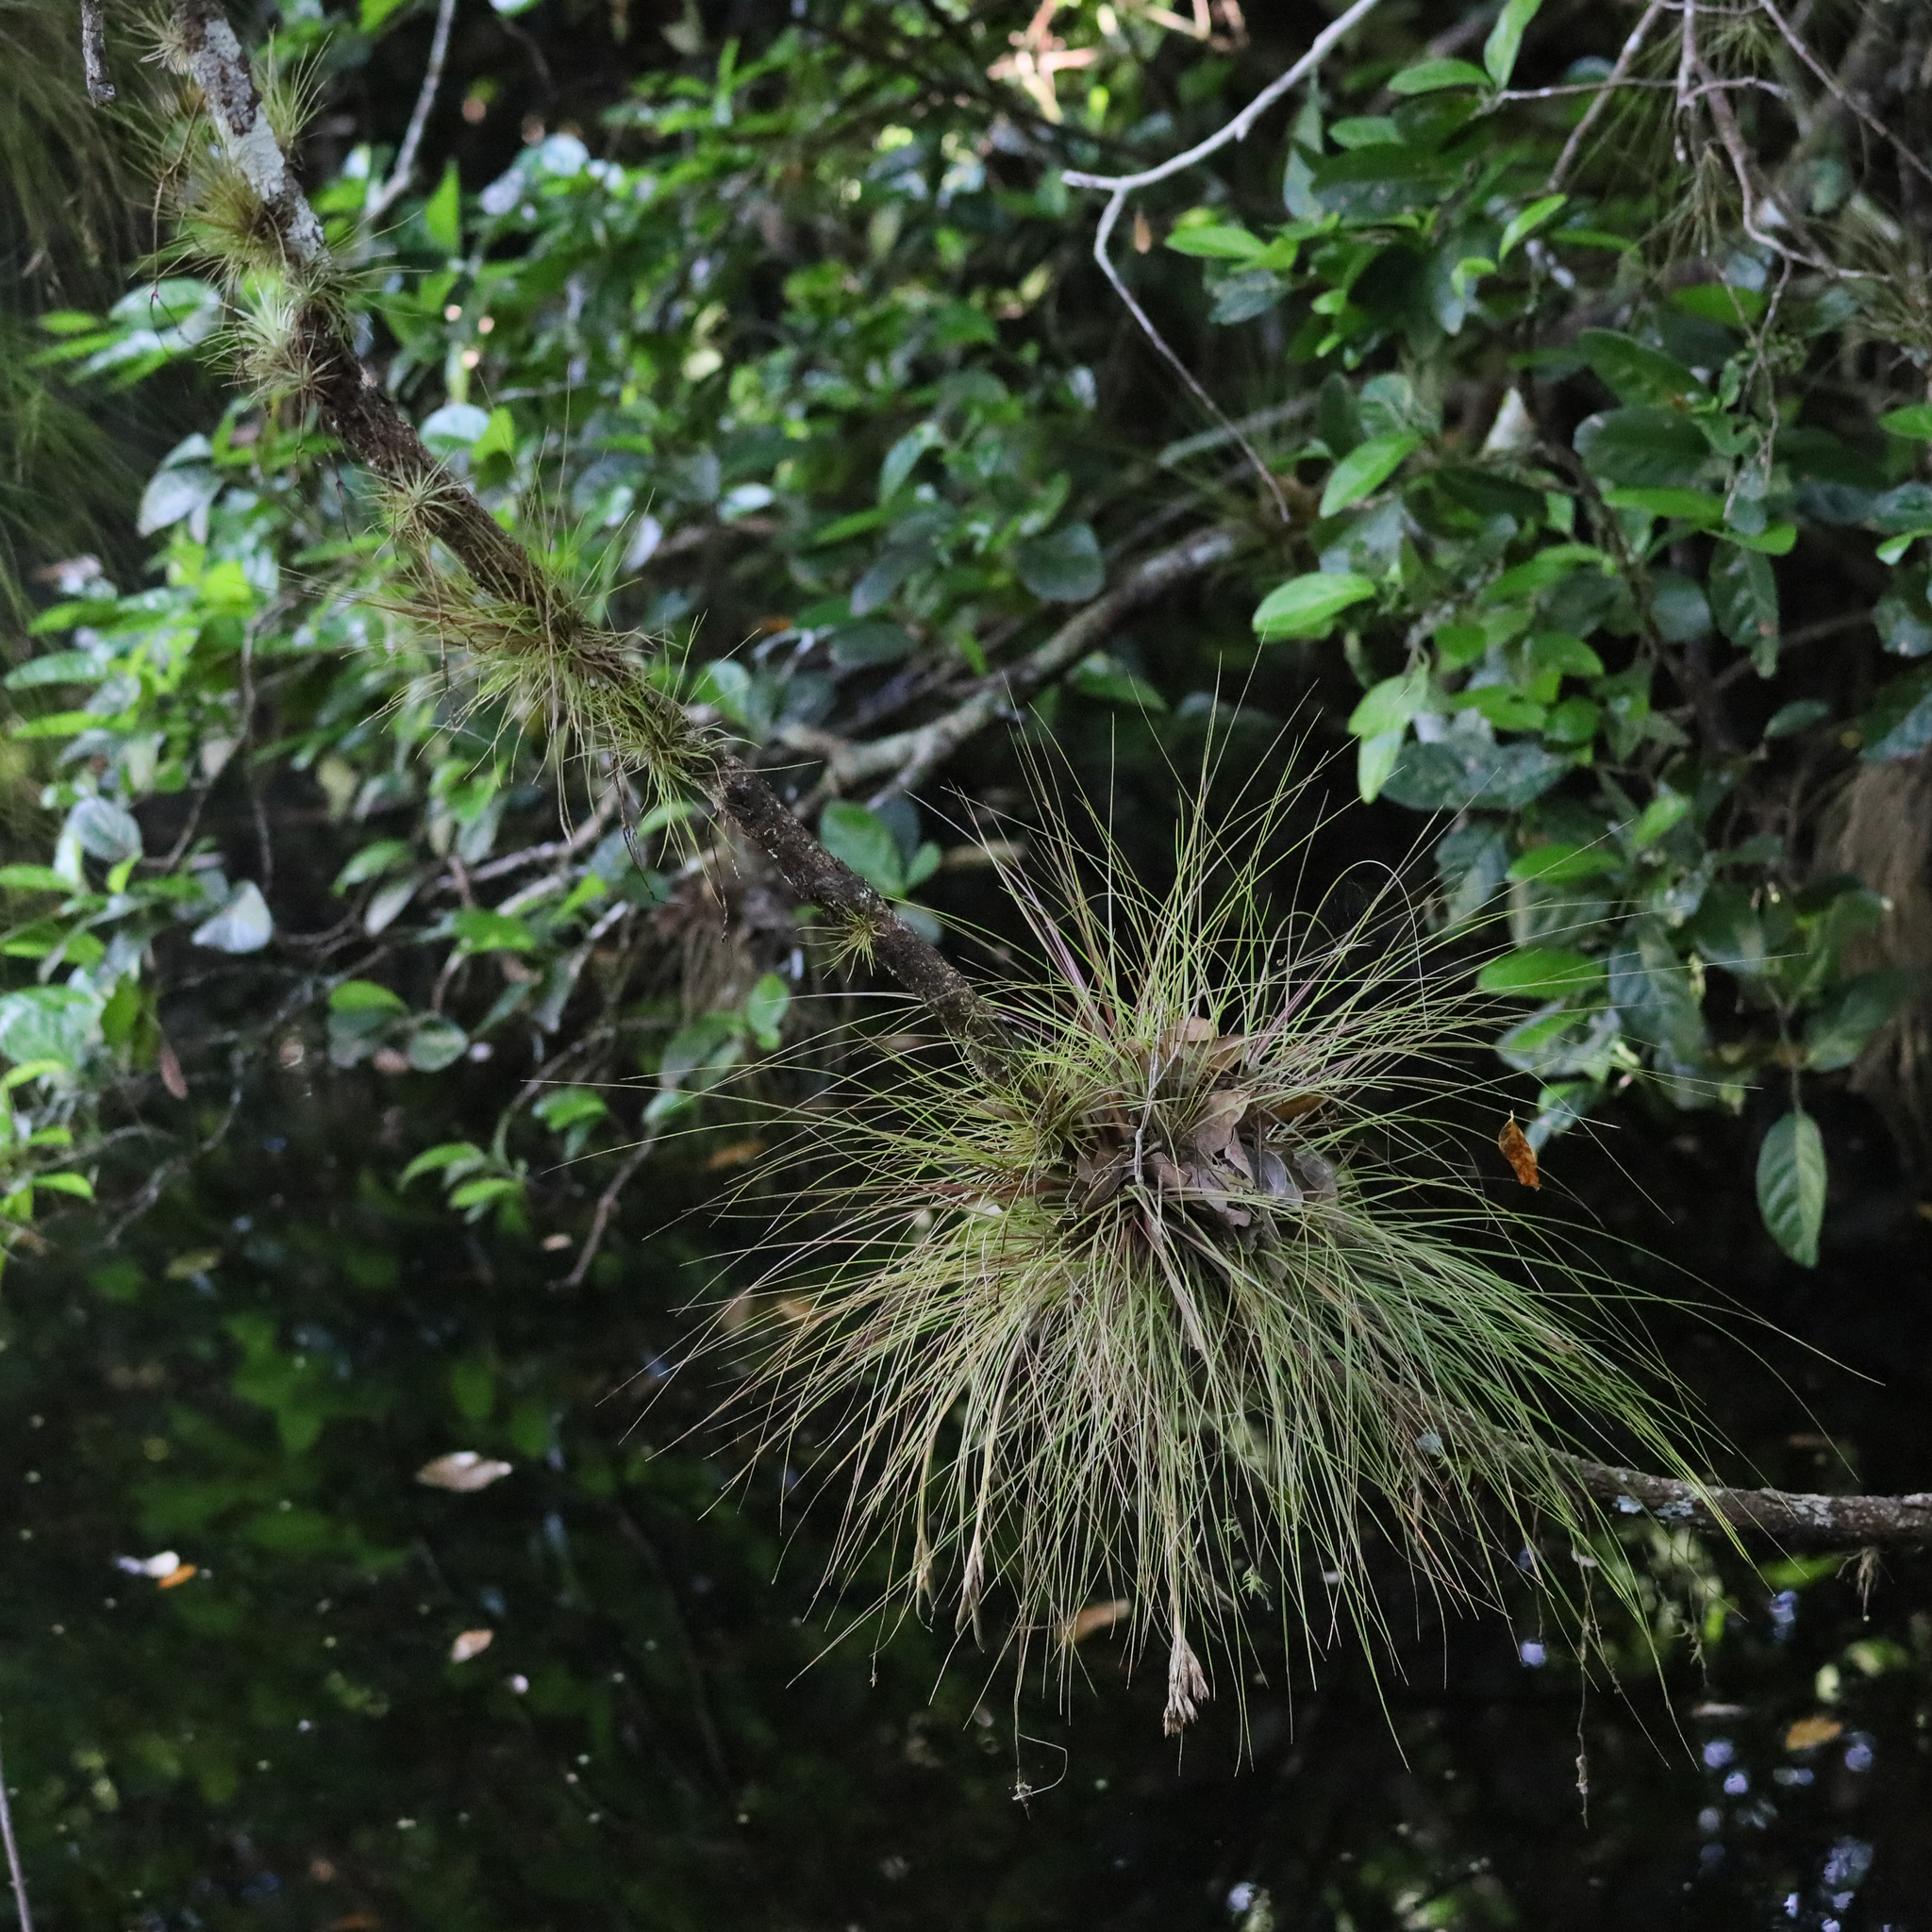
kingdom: Plantae
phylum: Tracheophyta
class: Liliopsida
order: Poales
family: Bromeliaceae
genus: Tillandsia
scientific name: Tillandsia setacea
